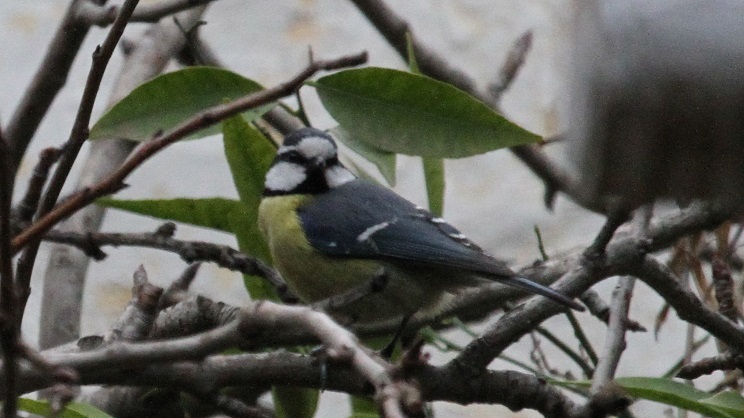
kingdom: Animalia
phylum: Chordata
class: Aves
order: Passeriformes
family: Paridae
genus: Cyanistes
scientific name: Cyanistes teneriffae
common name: African blue tit
